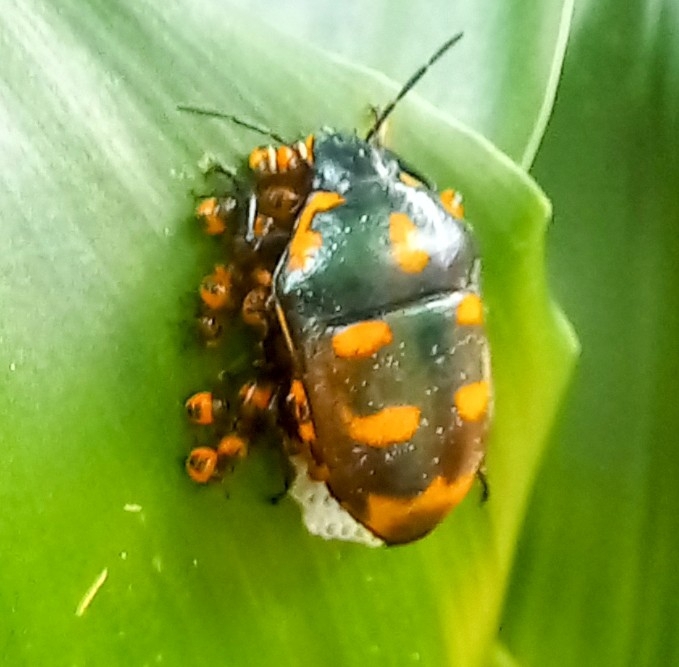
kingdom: Animalia
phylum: Arthropoda
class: Insecta
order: Hemiptera
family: Pentatomidae
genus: Cryptacrus
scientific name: Cryptacrus comes
